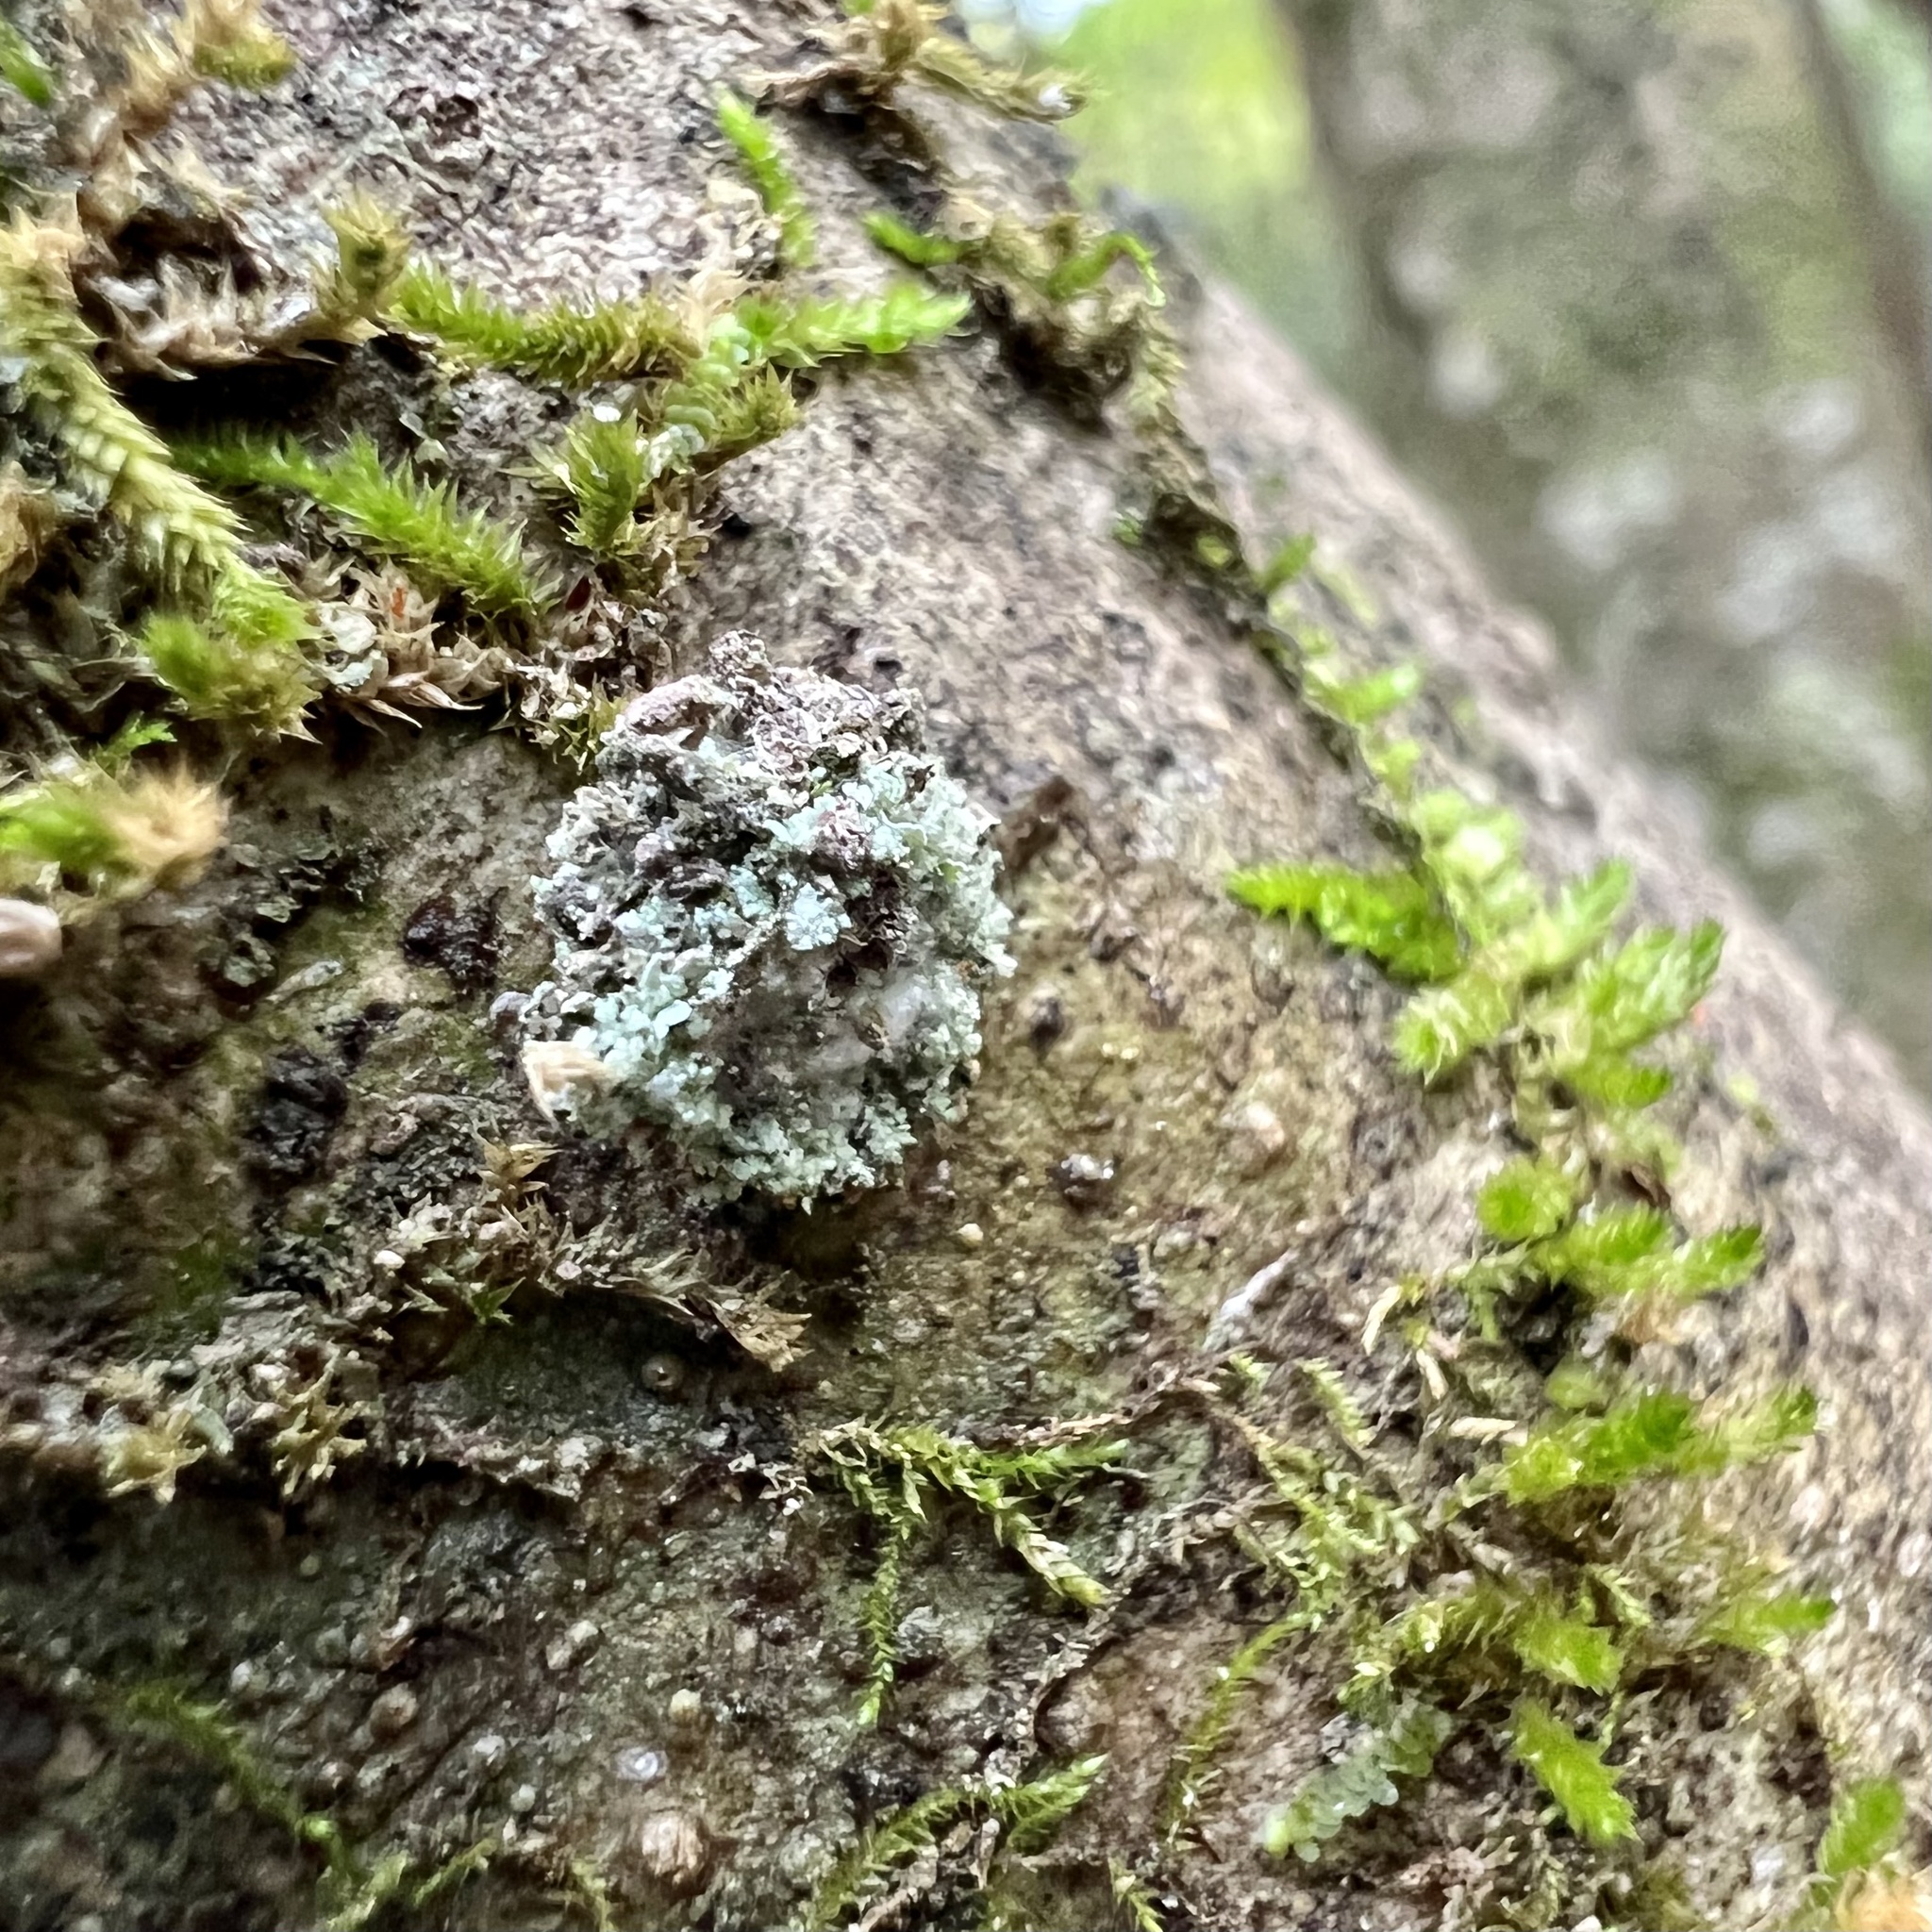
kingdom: Animalia
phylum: Arthropoda
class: Insecta
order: Neuroptera
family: Chrysopidae
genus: Leucochrysa
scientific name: Leucochrysa pavida
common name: Lichen-carrying green lacewing
